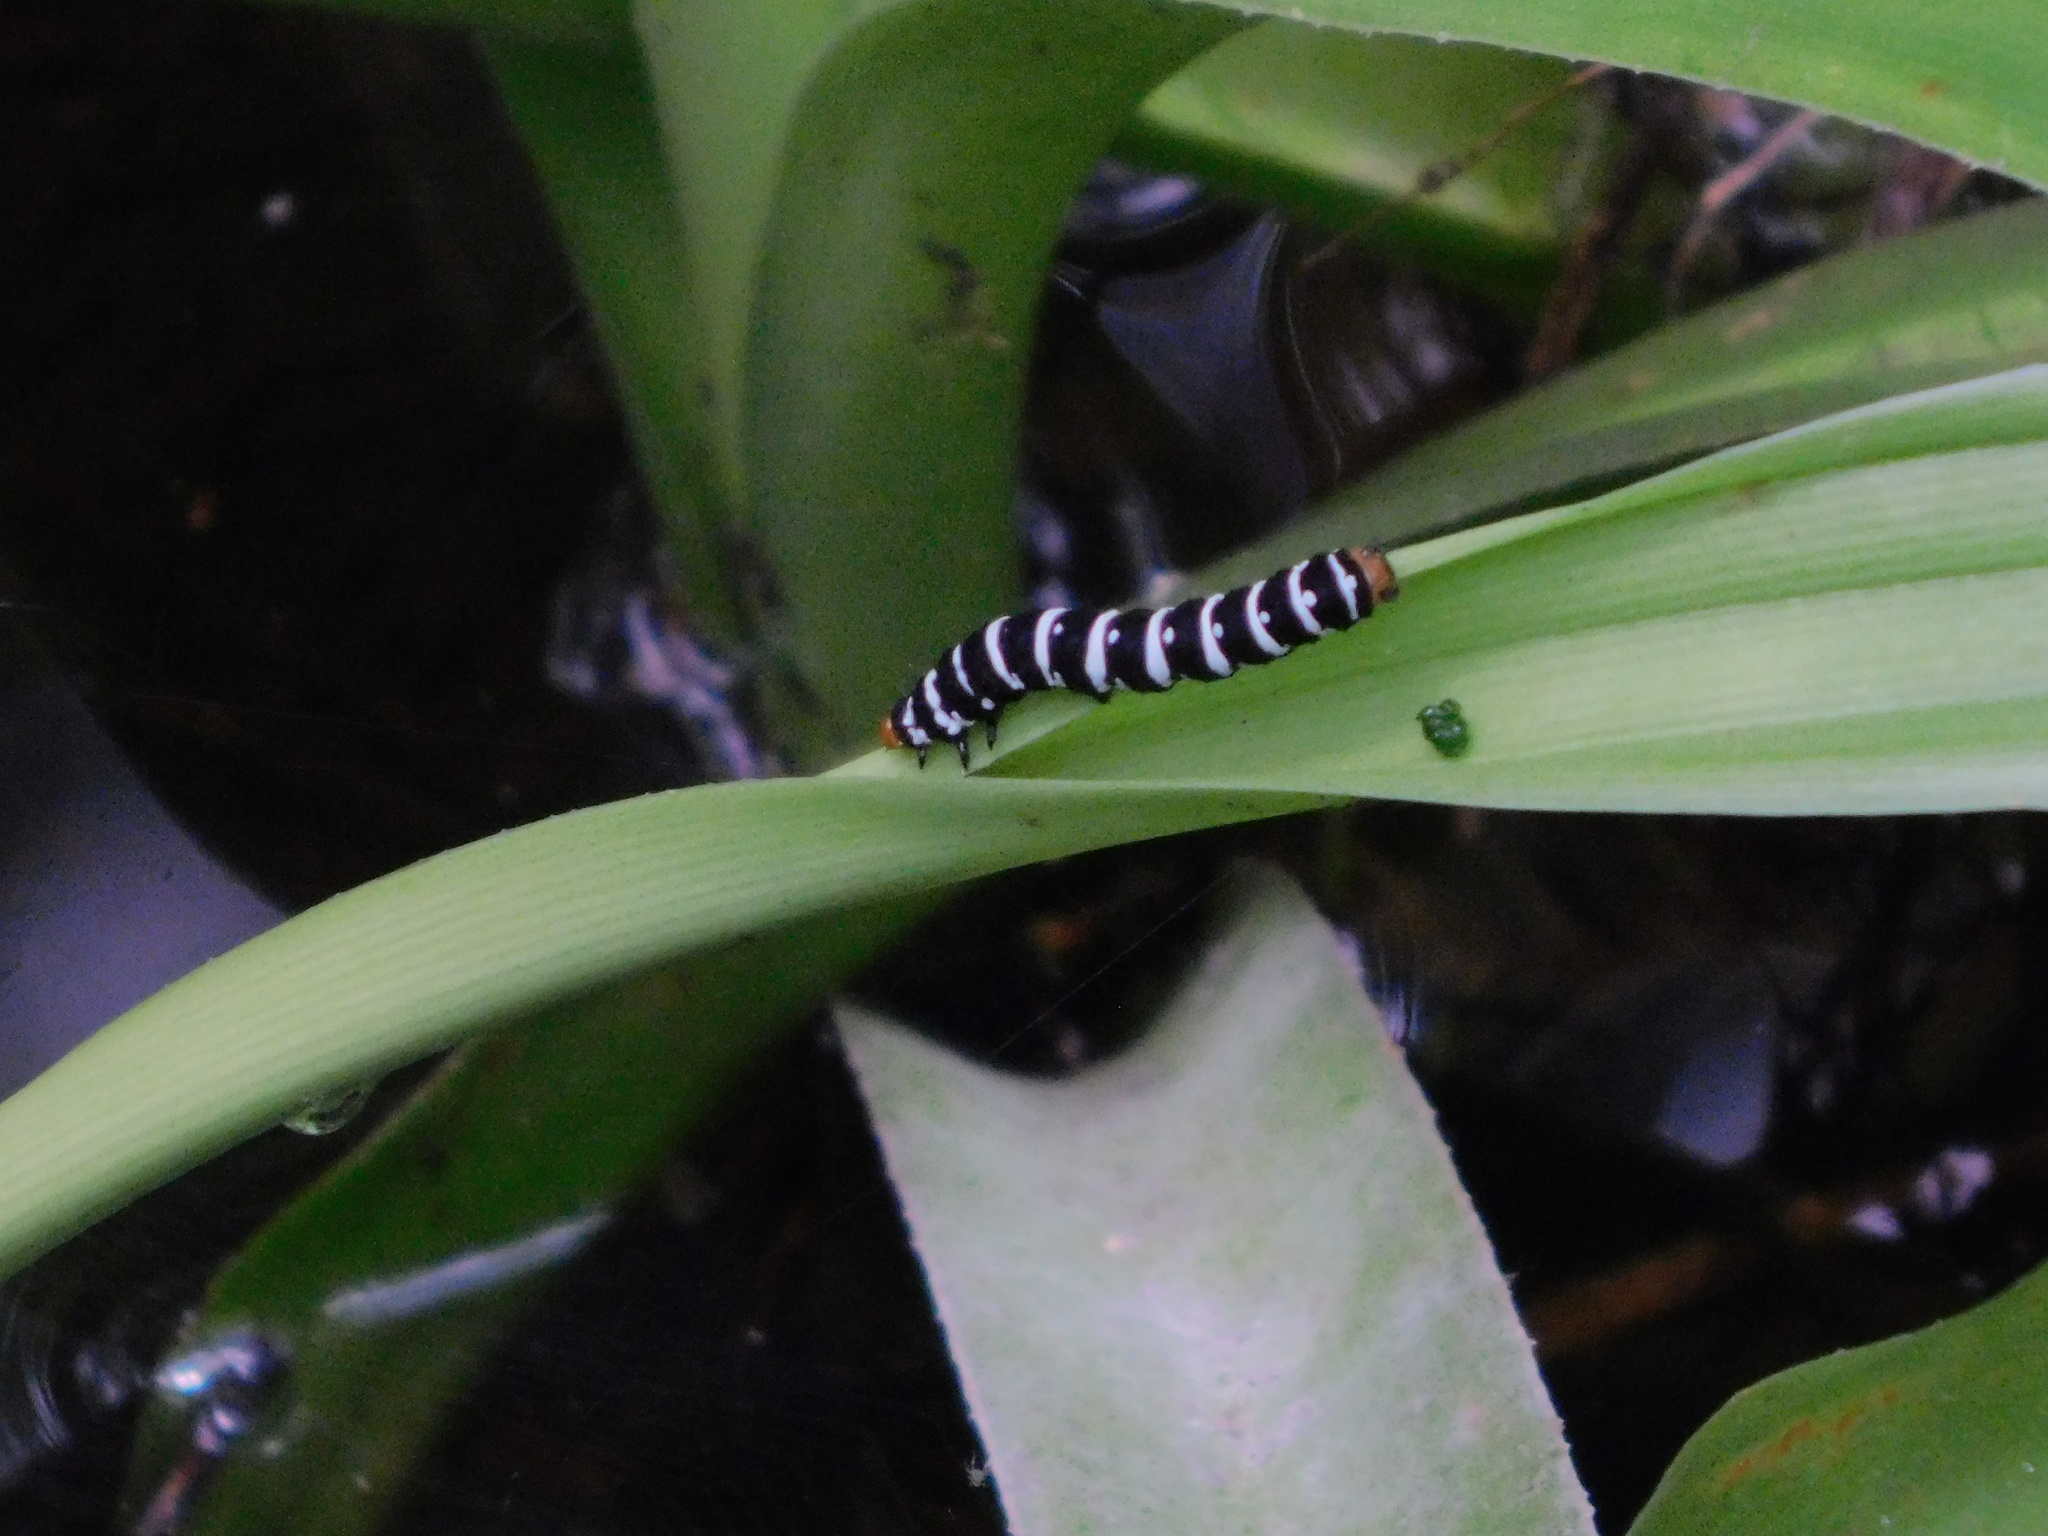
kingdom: Animalia
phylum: Arthropoda
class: Insecta
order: Lepidoptera
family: Noctuidae
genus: Xanthopastis
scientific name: Xanthopastis regnatrix
